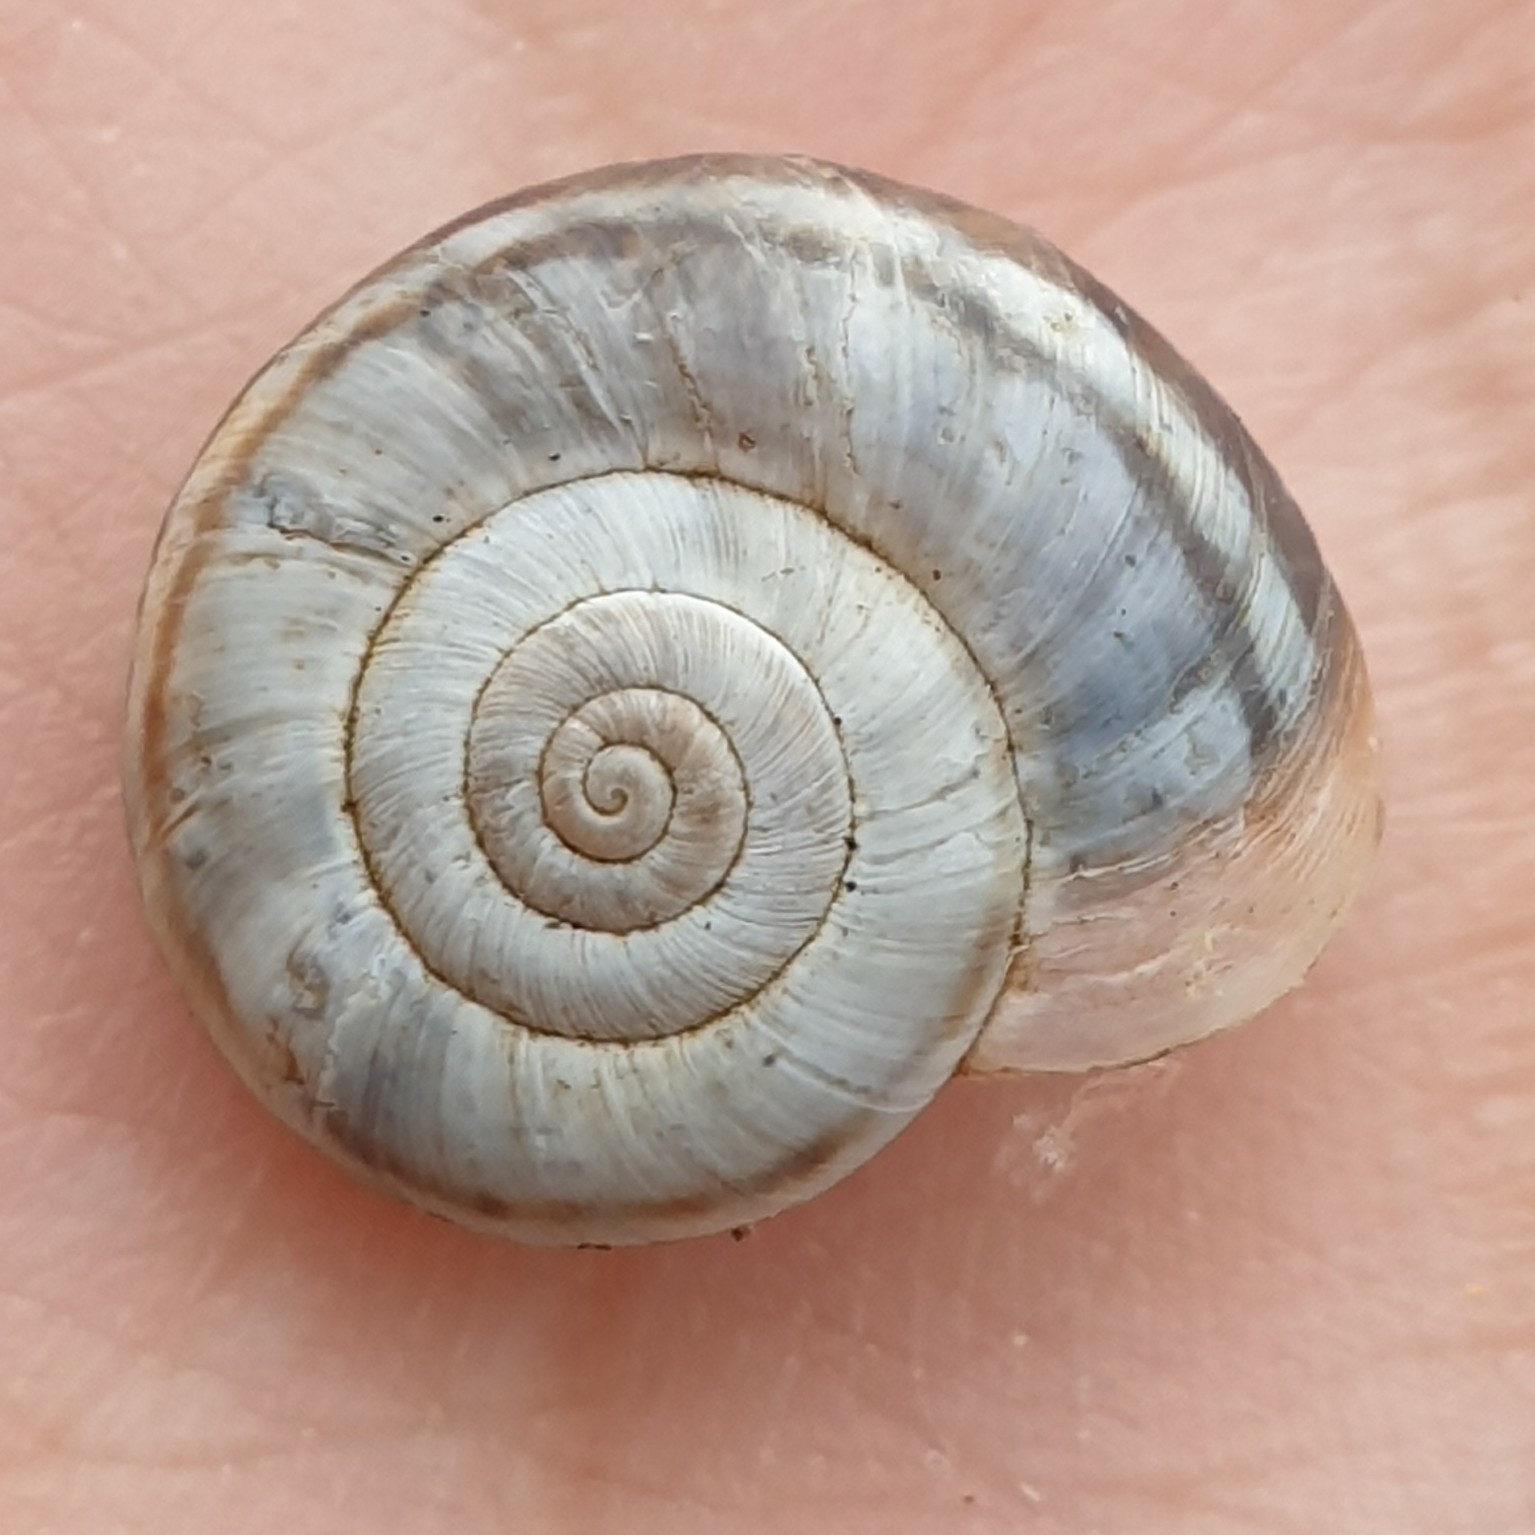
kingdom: Animalia
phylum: Mollusca
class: Gastropoda
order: Stylommatophora
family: Geomitridae
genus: Xerolenta
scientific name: Xerolenta obvia
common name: White heath snail
